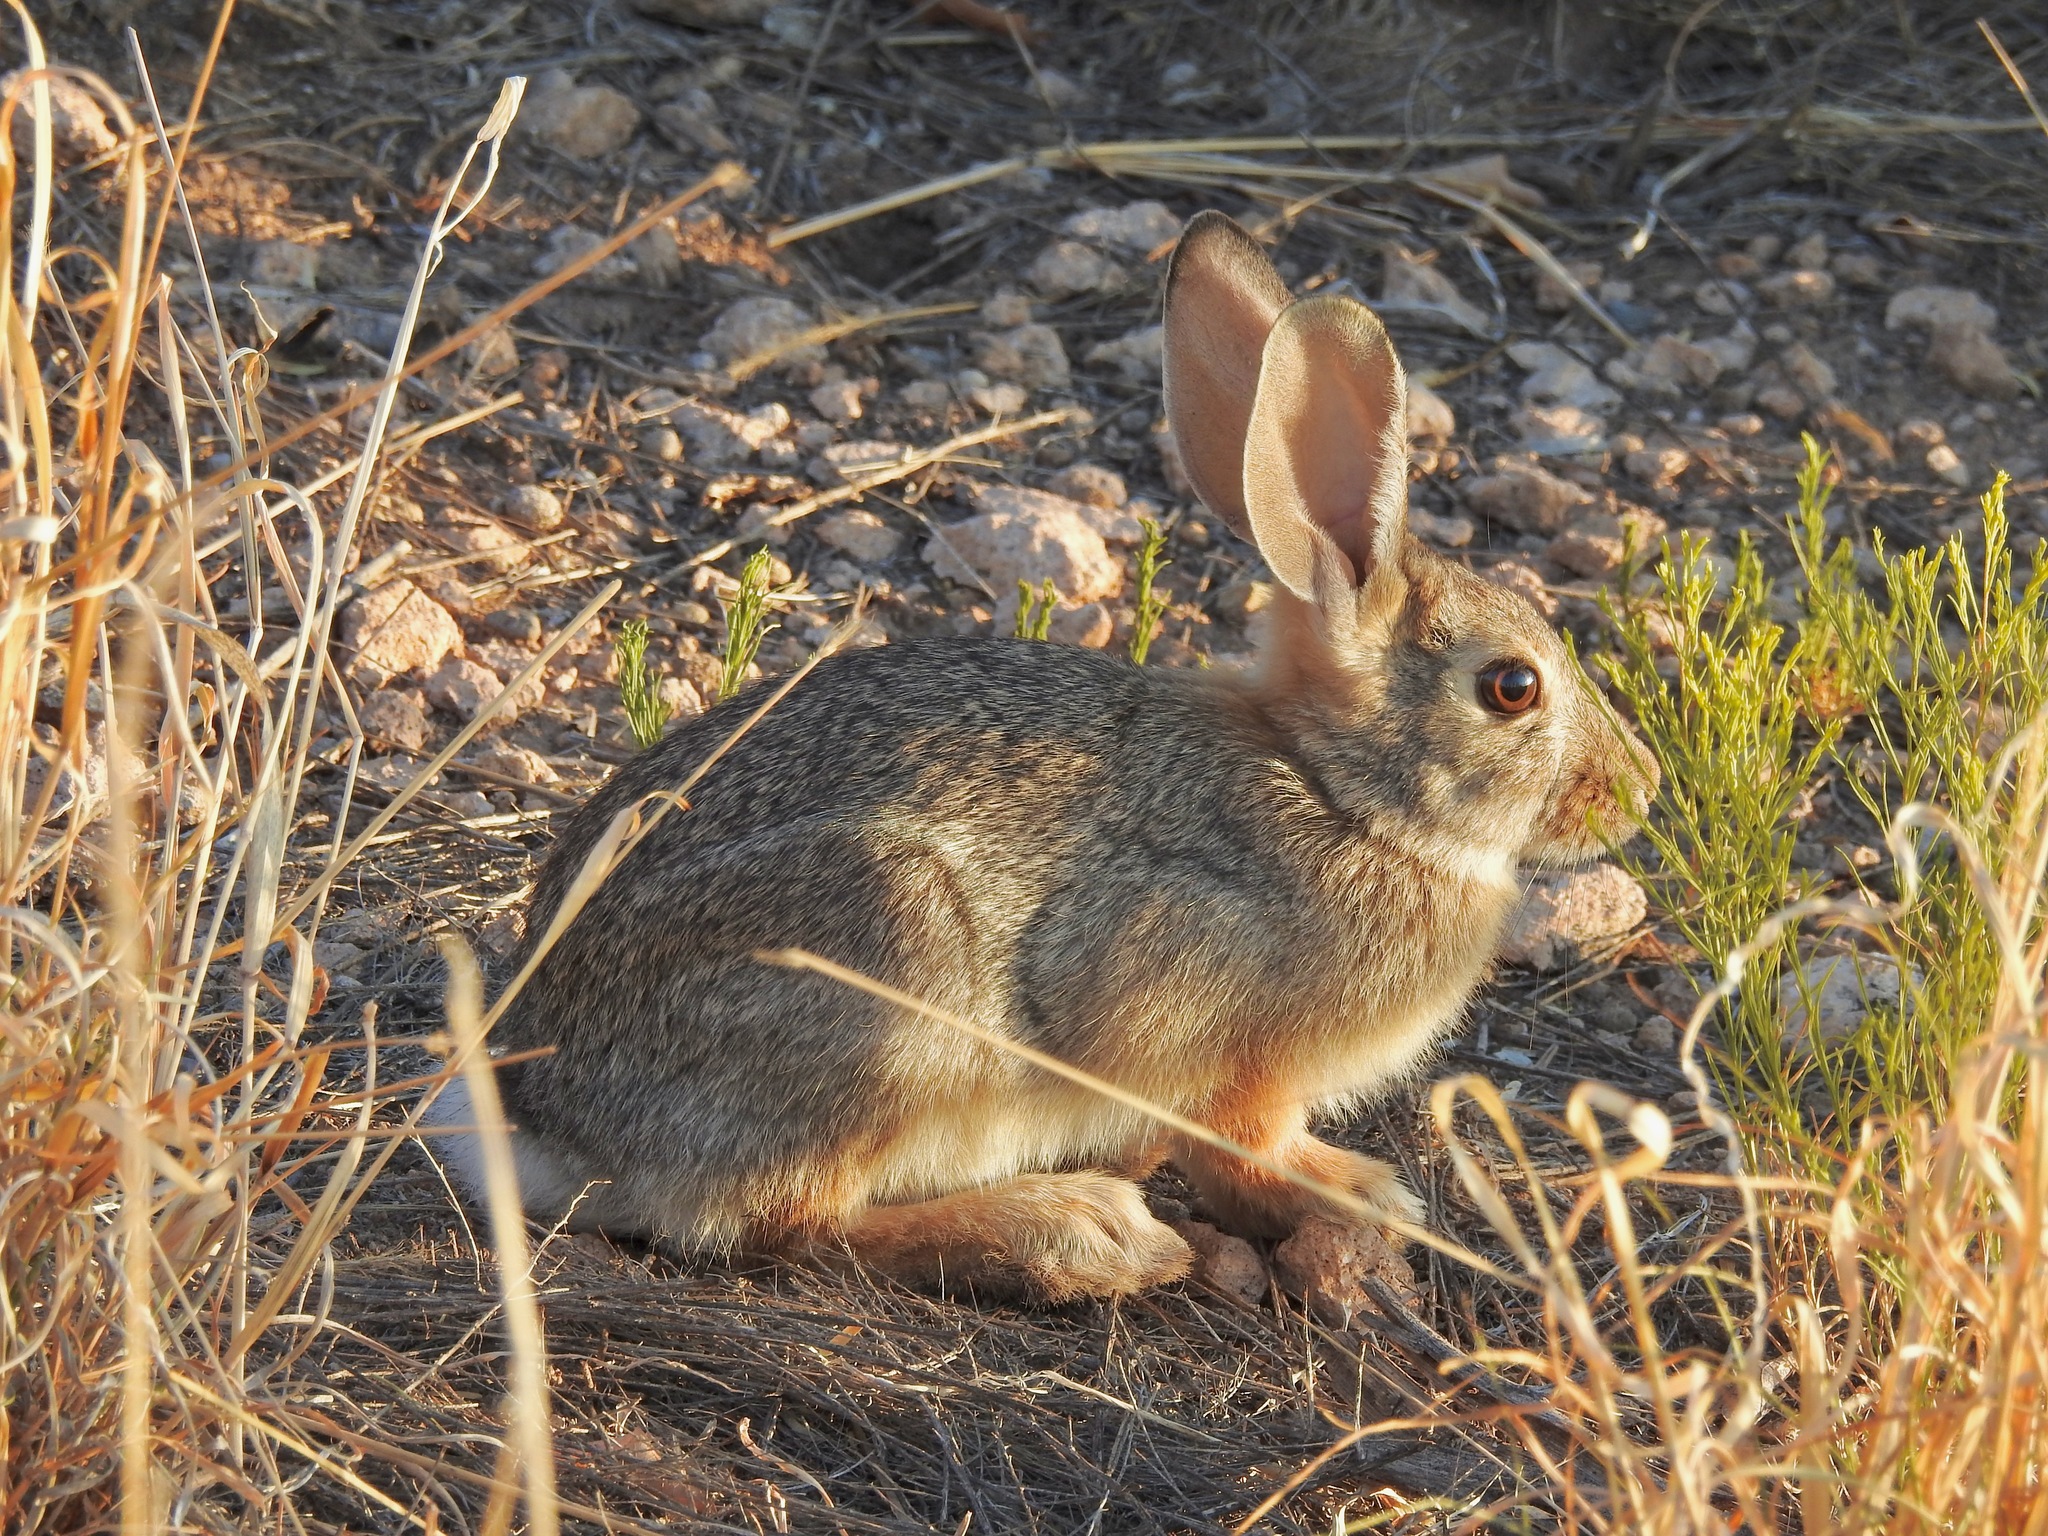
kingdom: Animalia
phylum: Chordata
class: Mammalia
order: Lagomorpha
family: Leporidae
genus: Sylvilagus
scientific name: Sylvilagus audubonii
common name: Desert cottontail
